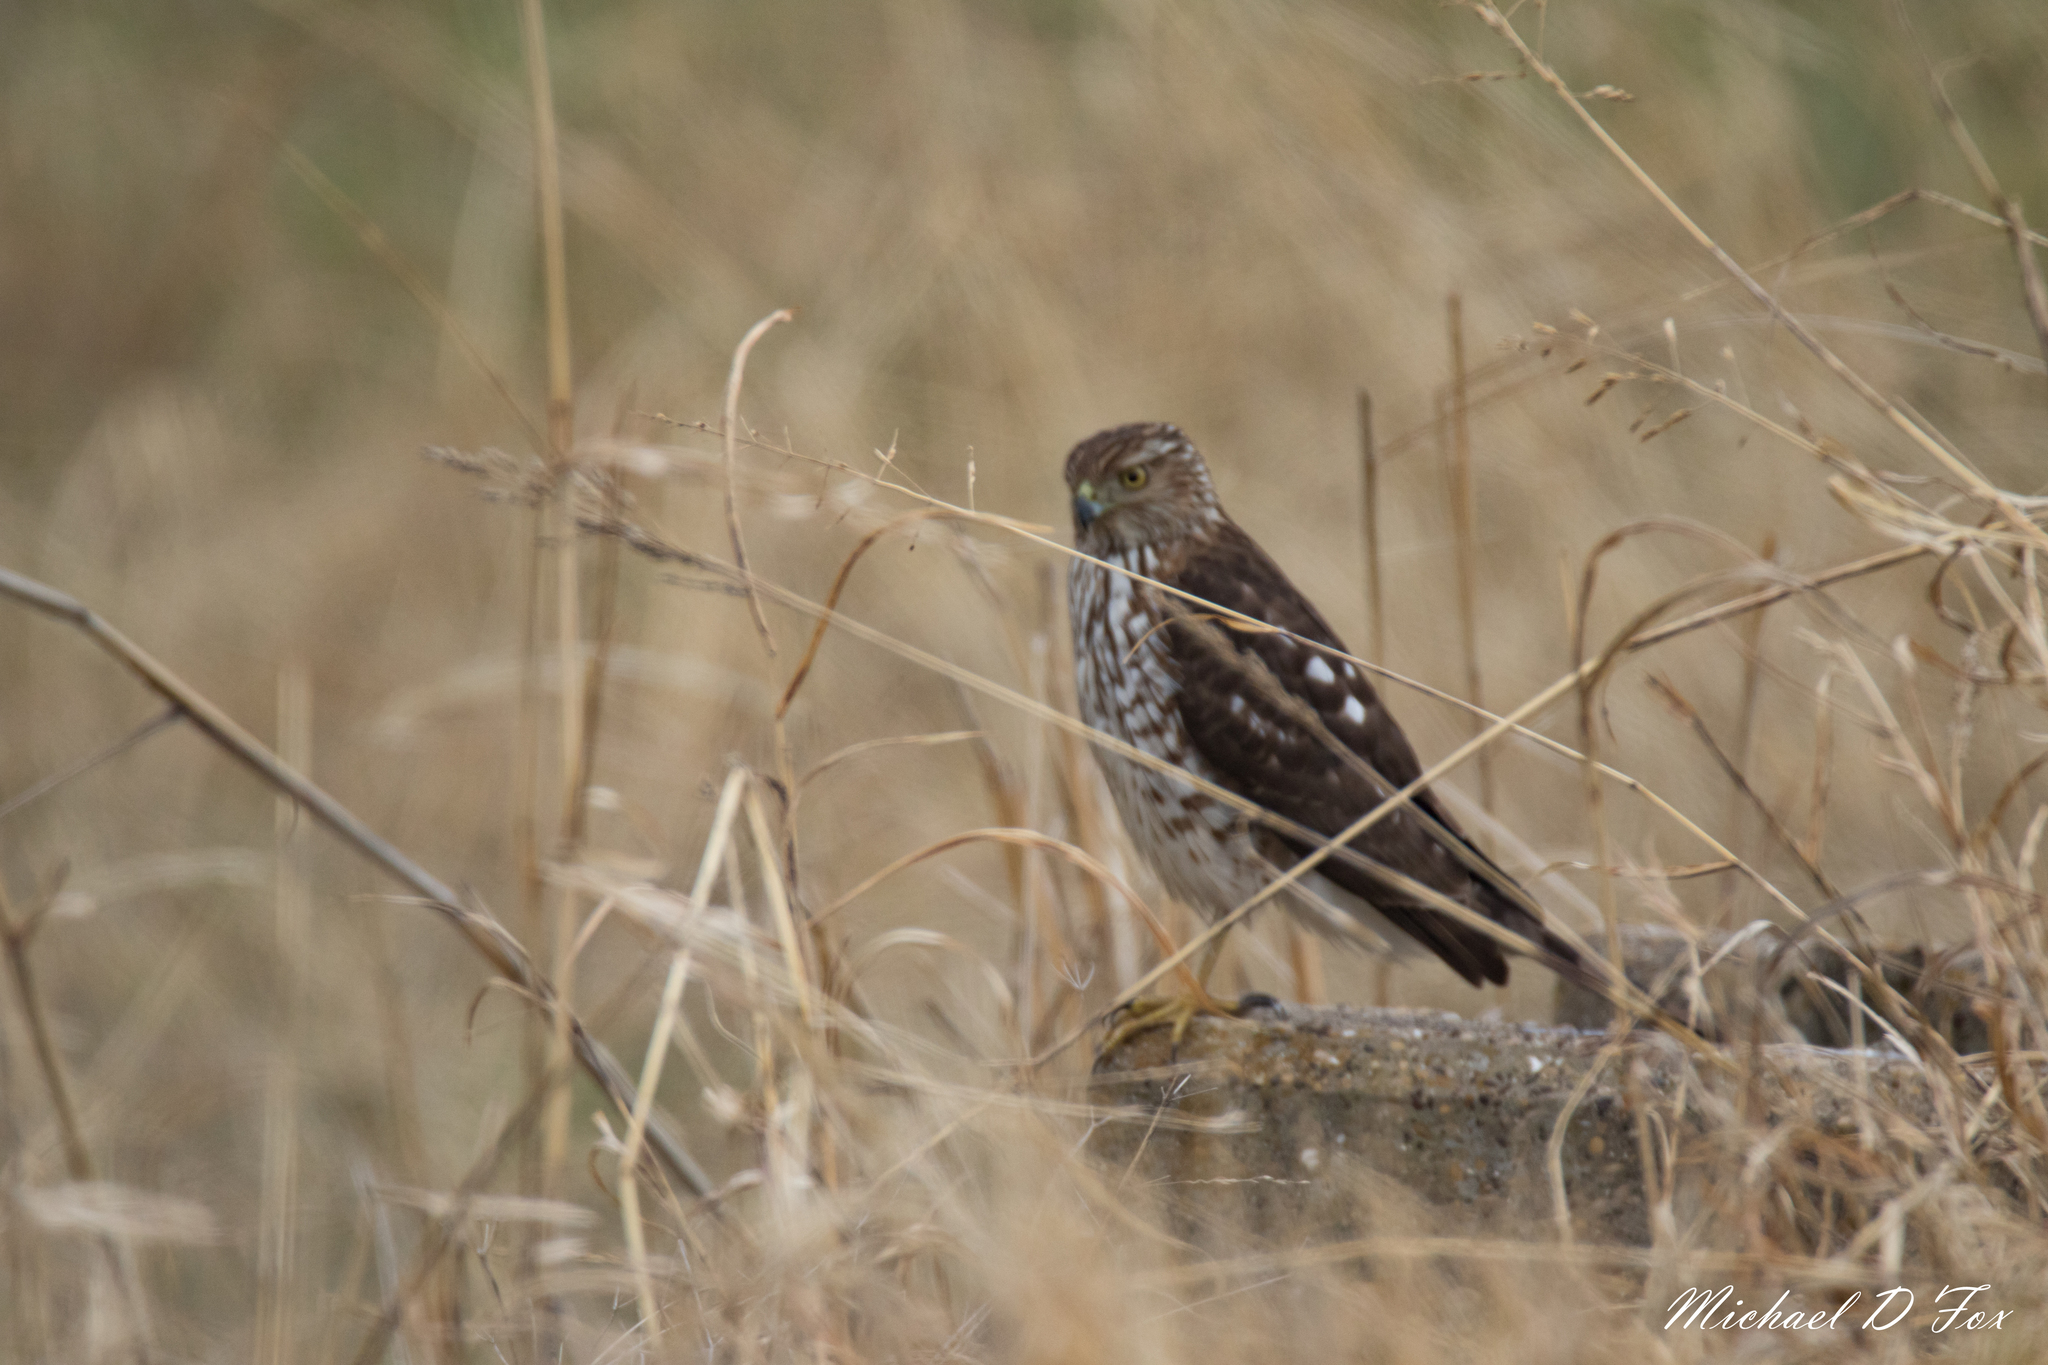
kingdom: Animalia
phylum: Chordata
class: Aves
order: Accipitriformes
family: Accipitridae
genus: Accipiter
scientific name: Accipiter cooperii
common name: Cooper's hawk
